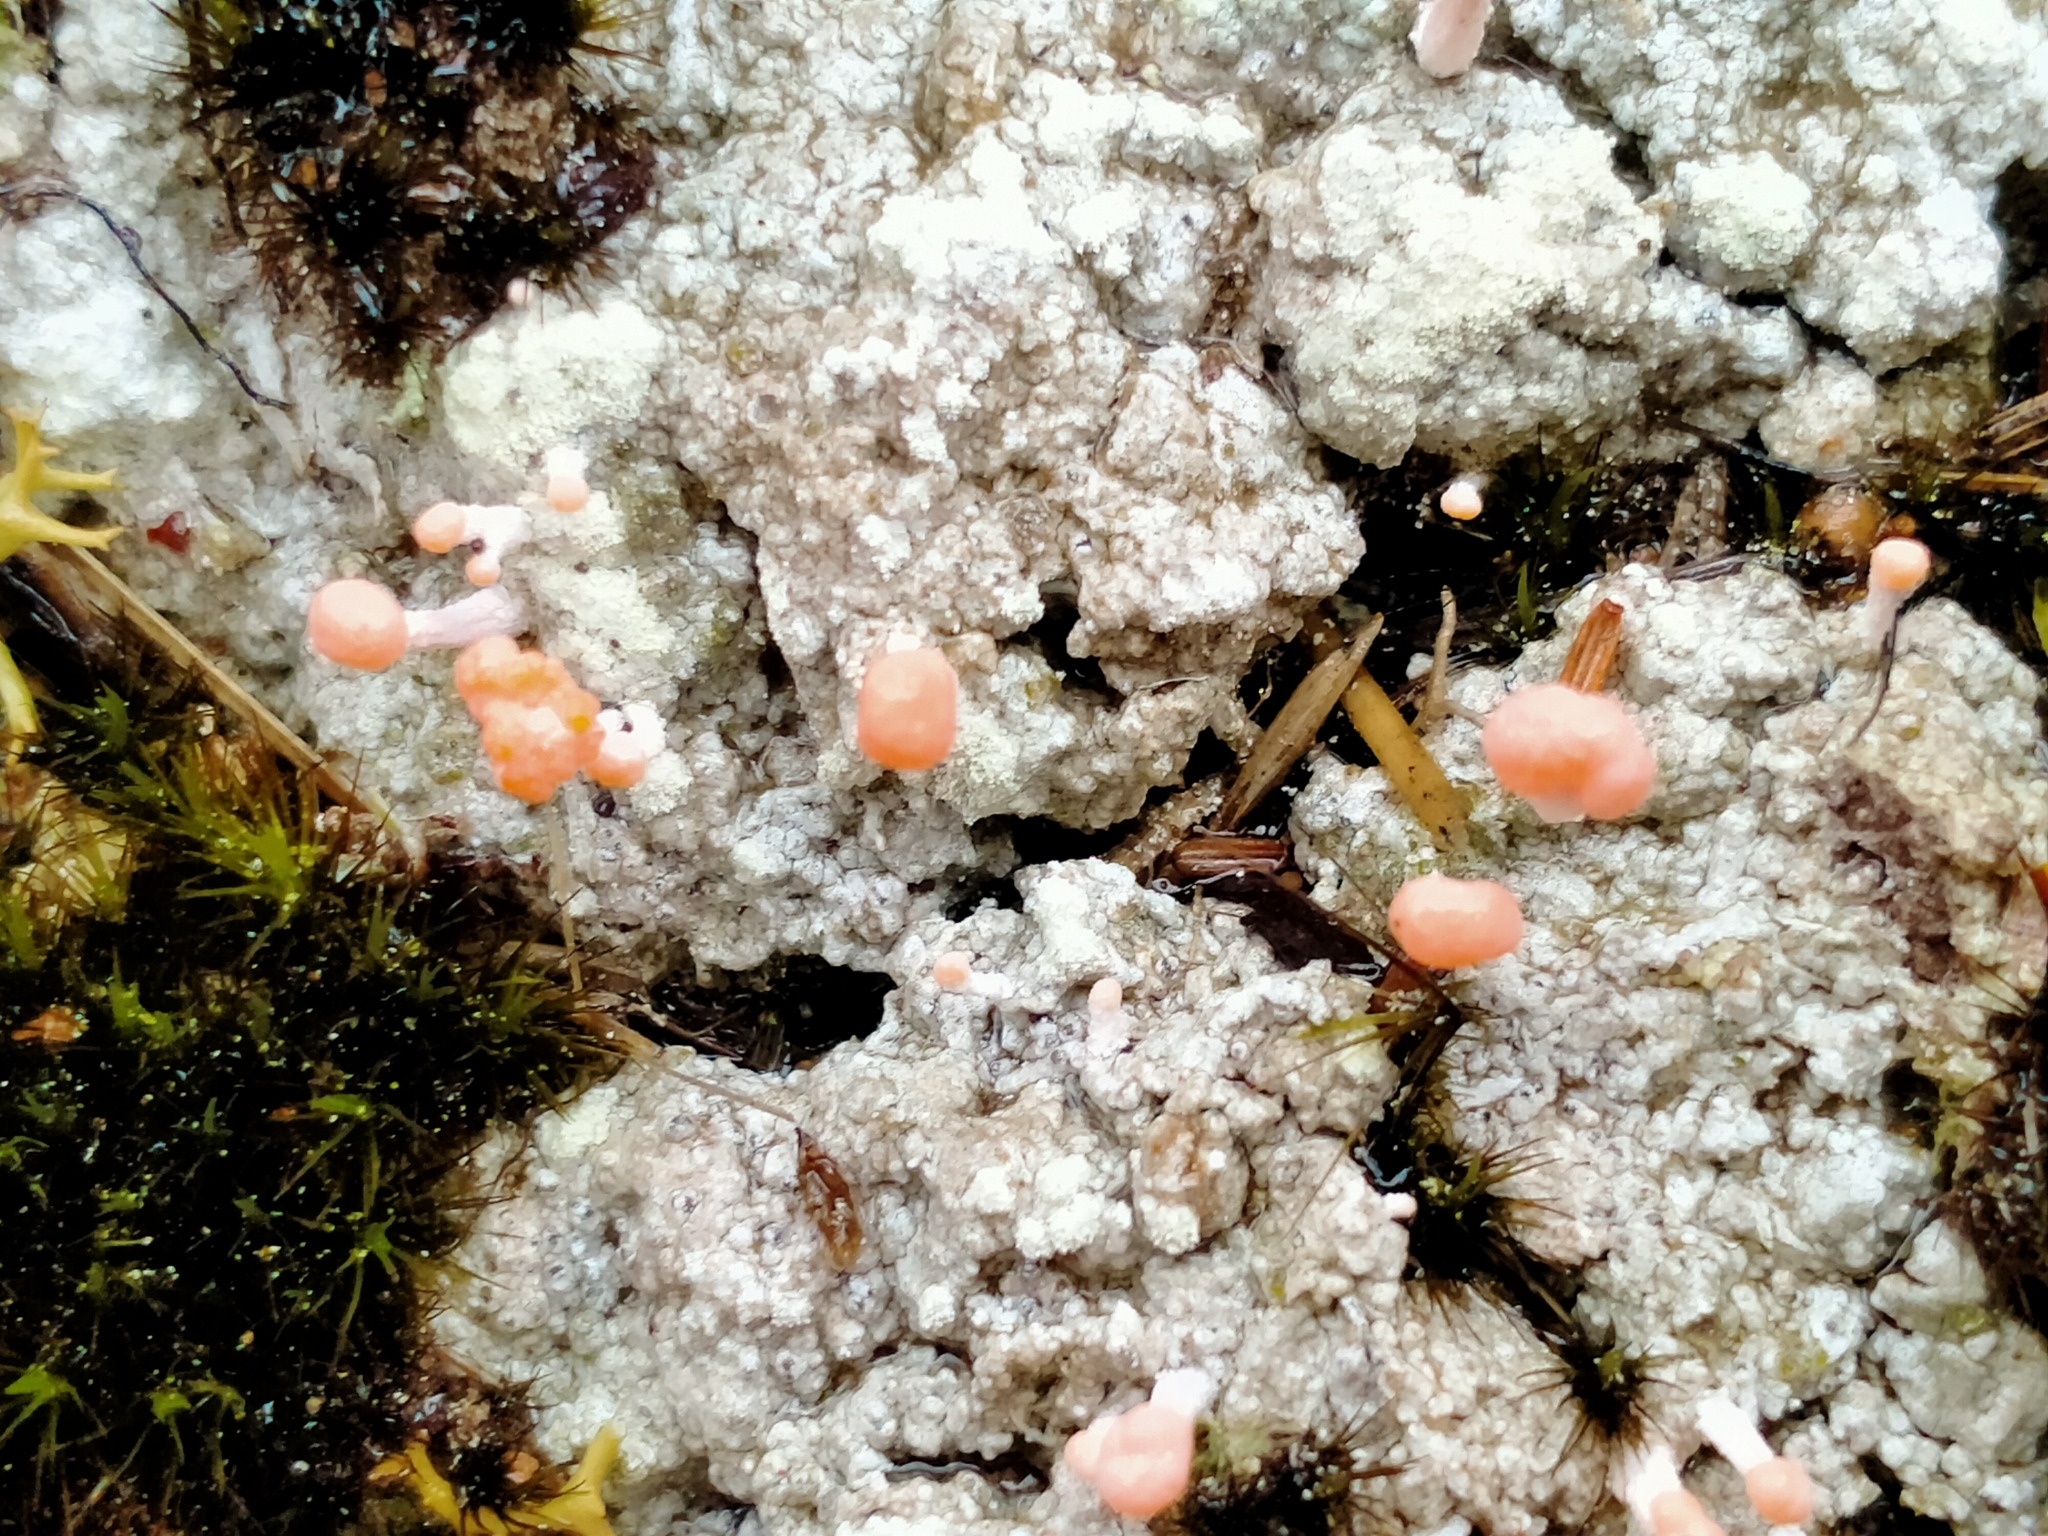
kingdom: Fungi
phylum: Ascomycota
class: Lecanoromycetes
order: Pertusariales
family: Icmadophilaceae
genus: Dibaeis
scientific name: Dibaeis arcuata
